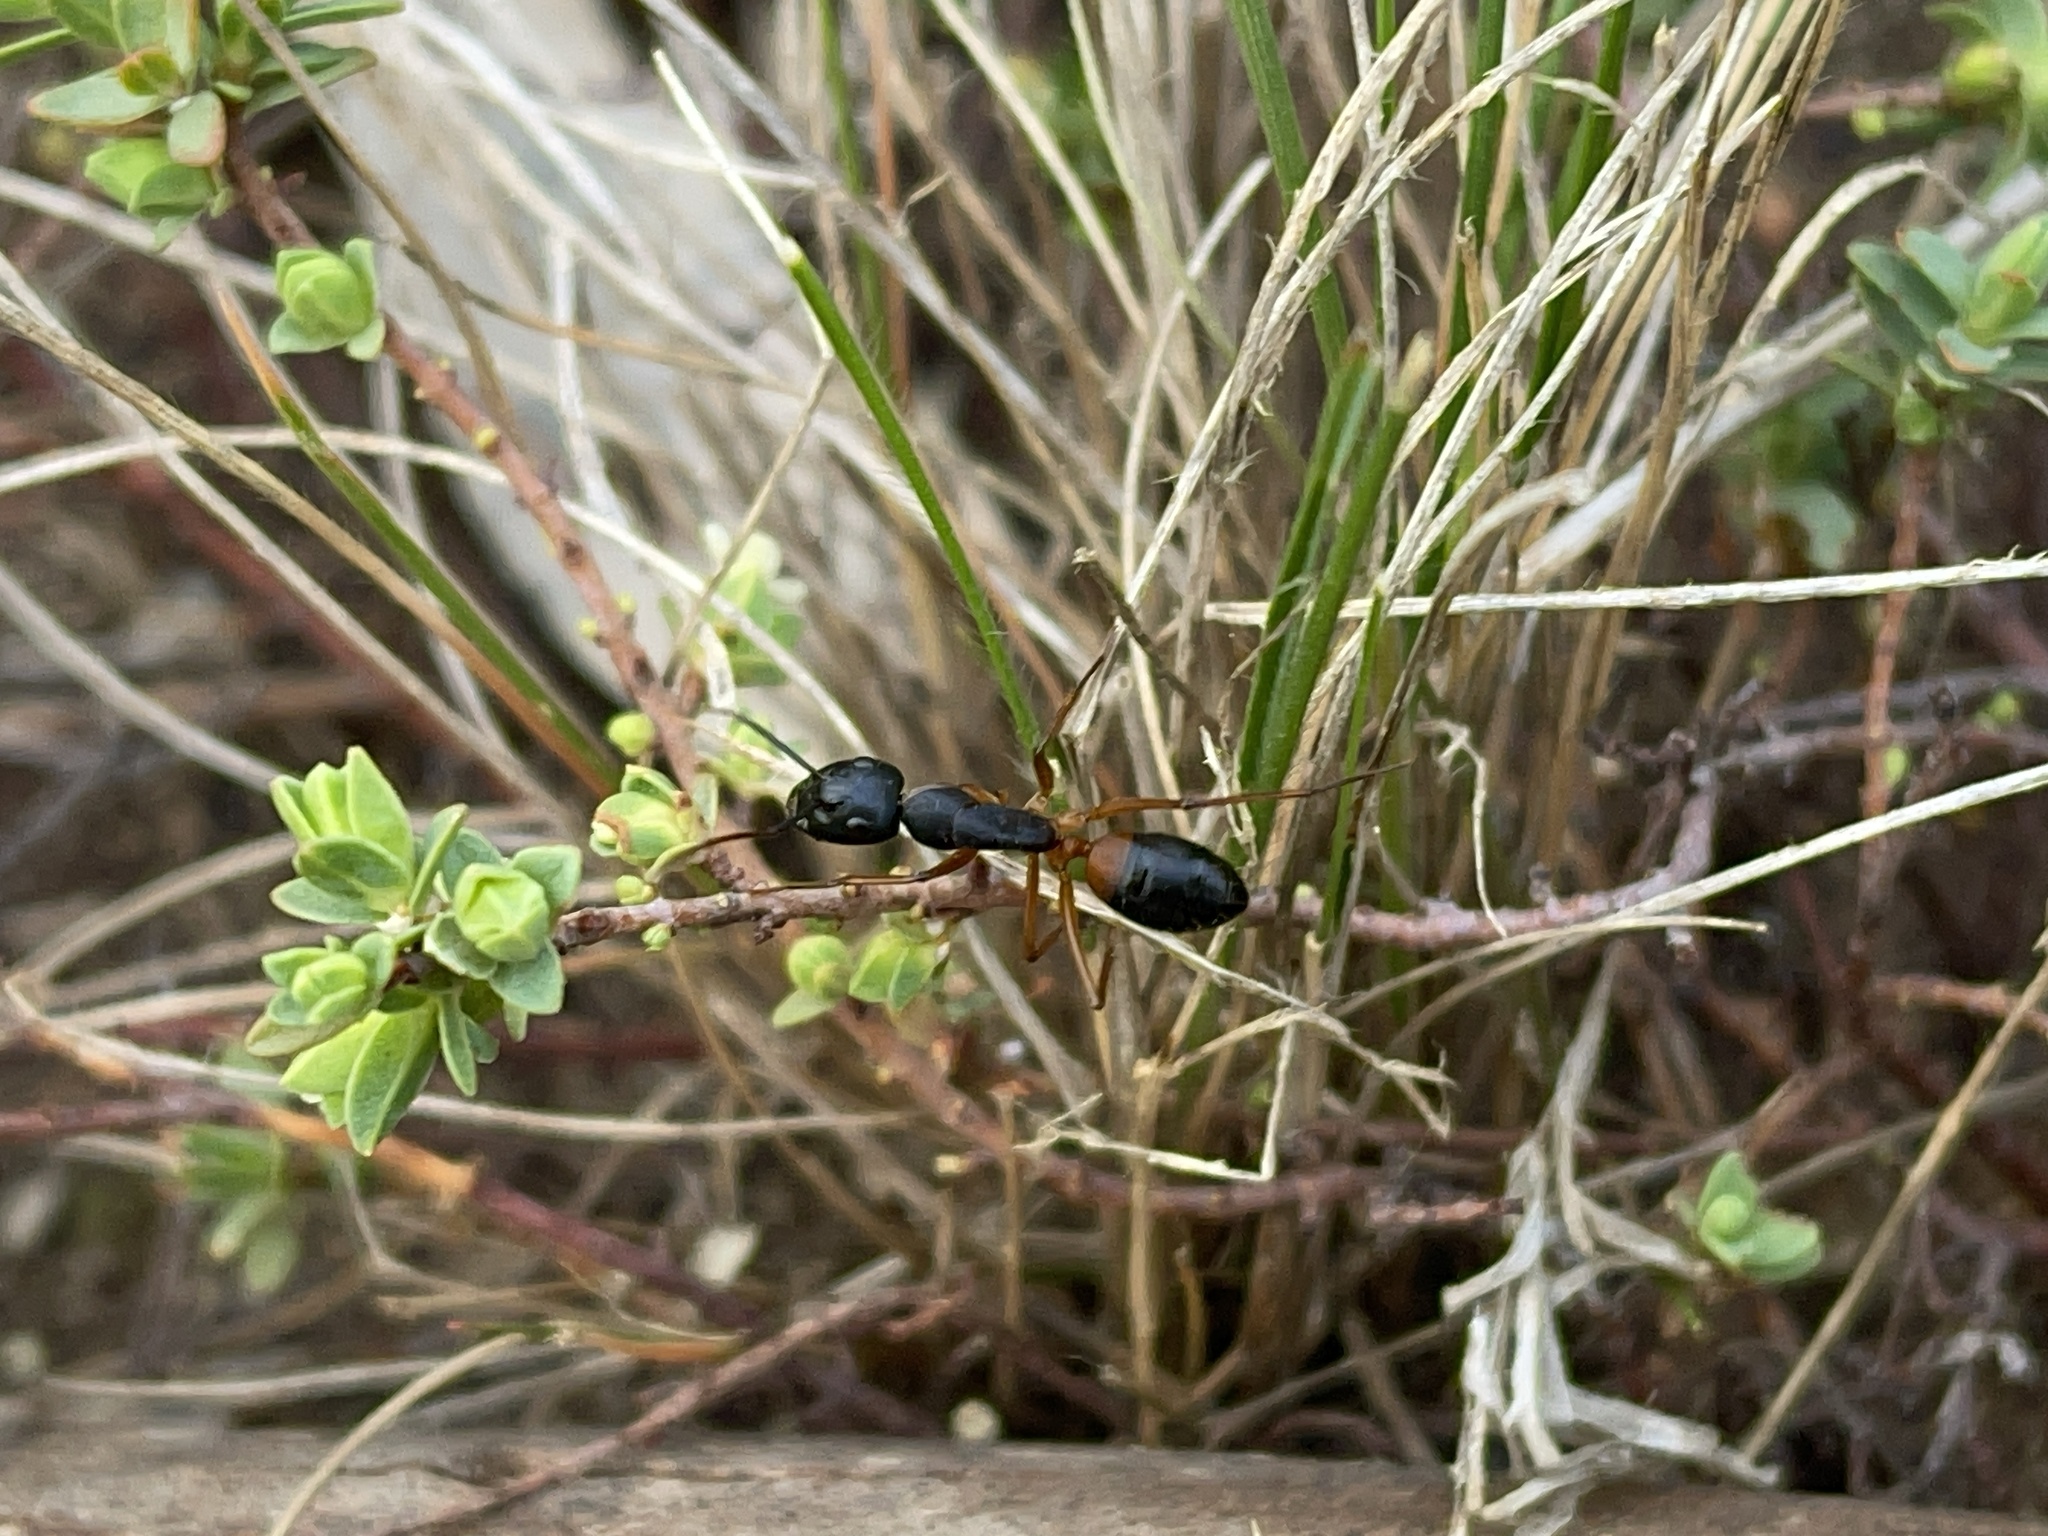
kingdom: Animalia
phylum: Arthropoda
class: Insecta
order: Hymenoptera
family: Formicidae
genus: Camponotus
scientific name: Camponotus consobrinus
